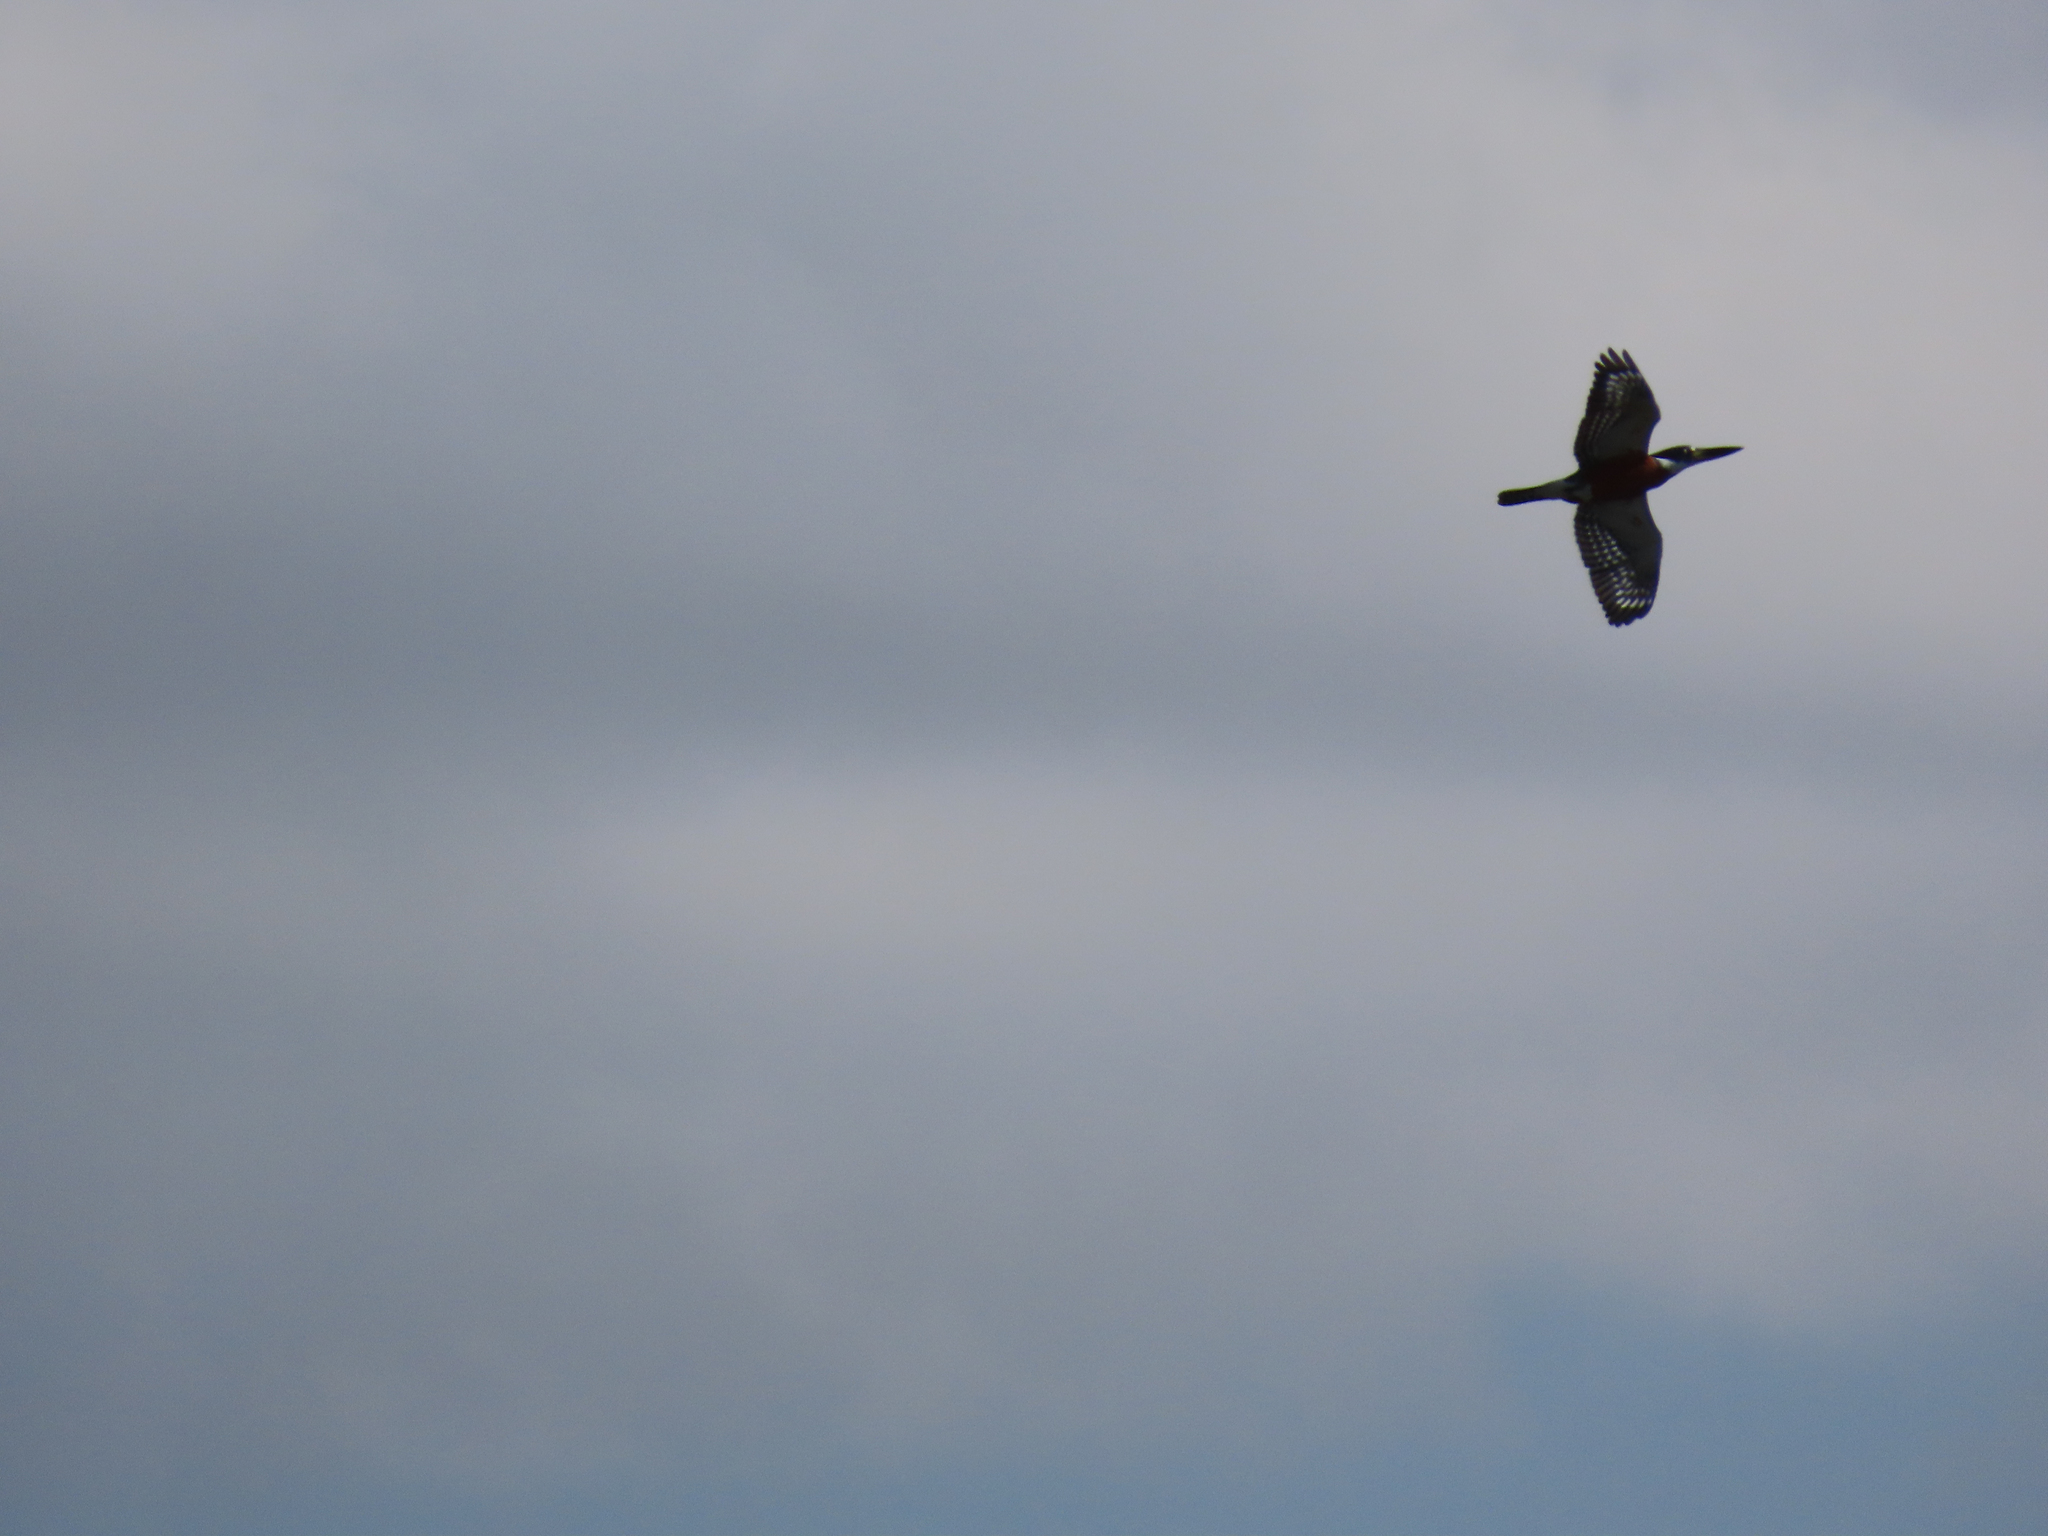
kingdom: Animalia
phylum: Chordata
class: Aves
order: Coraciiformes
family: Alcedinidae
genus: Megaceryle
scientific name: Megaceryle torquata
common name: Ringed kingfisher
